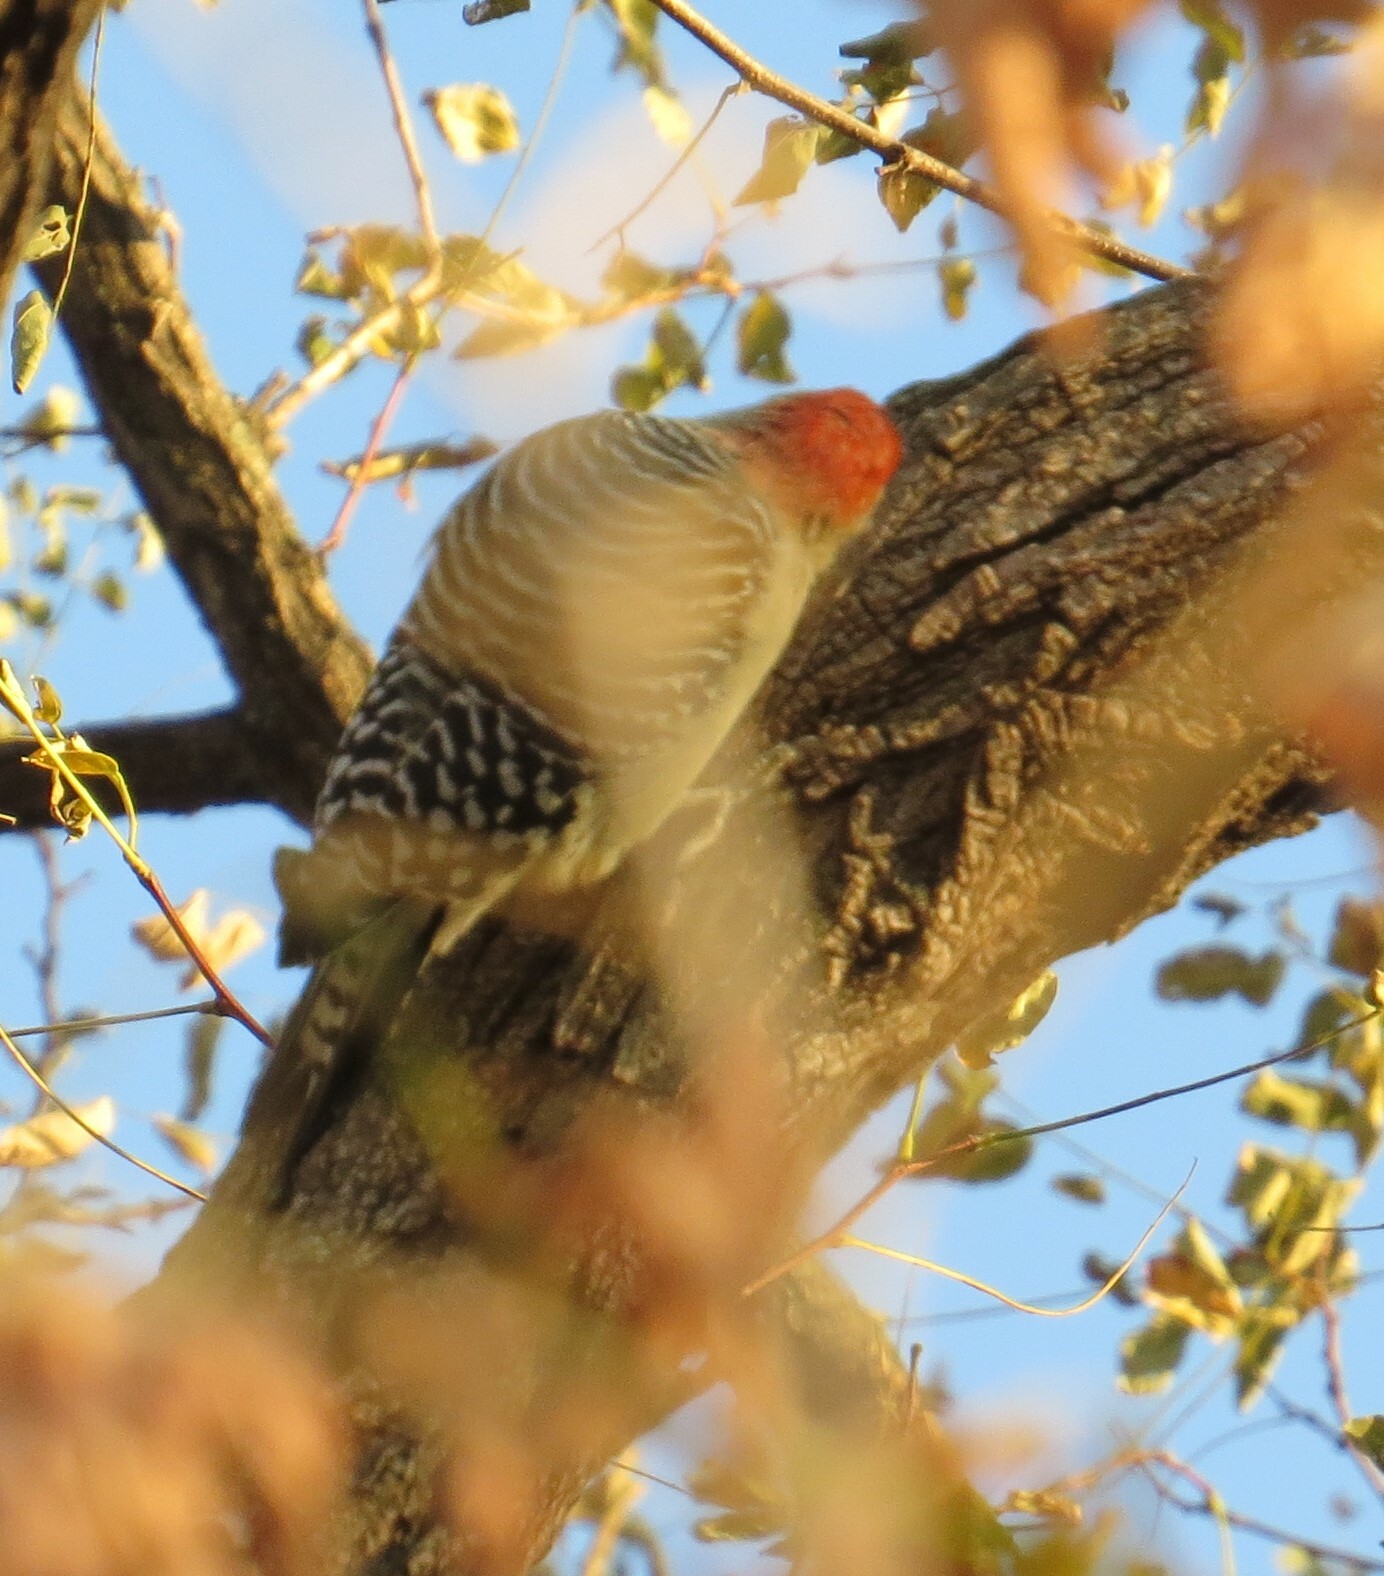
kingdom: Animalia
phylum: Chordata
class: Aves
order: Piciformes
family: Picidae
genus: Melanerpes
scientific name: Melanerpes carolinus
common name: Red-bellied woodpecker
